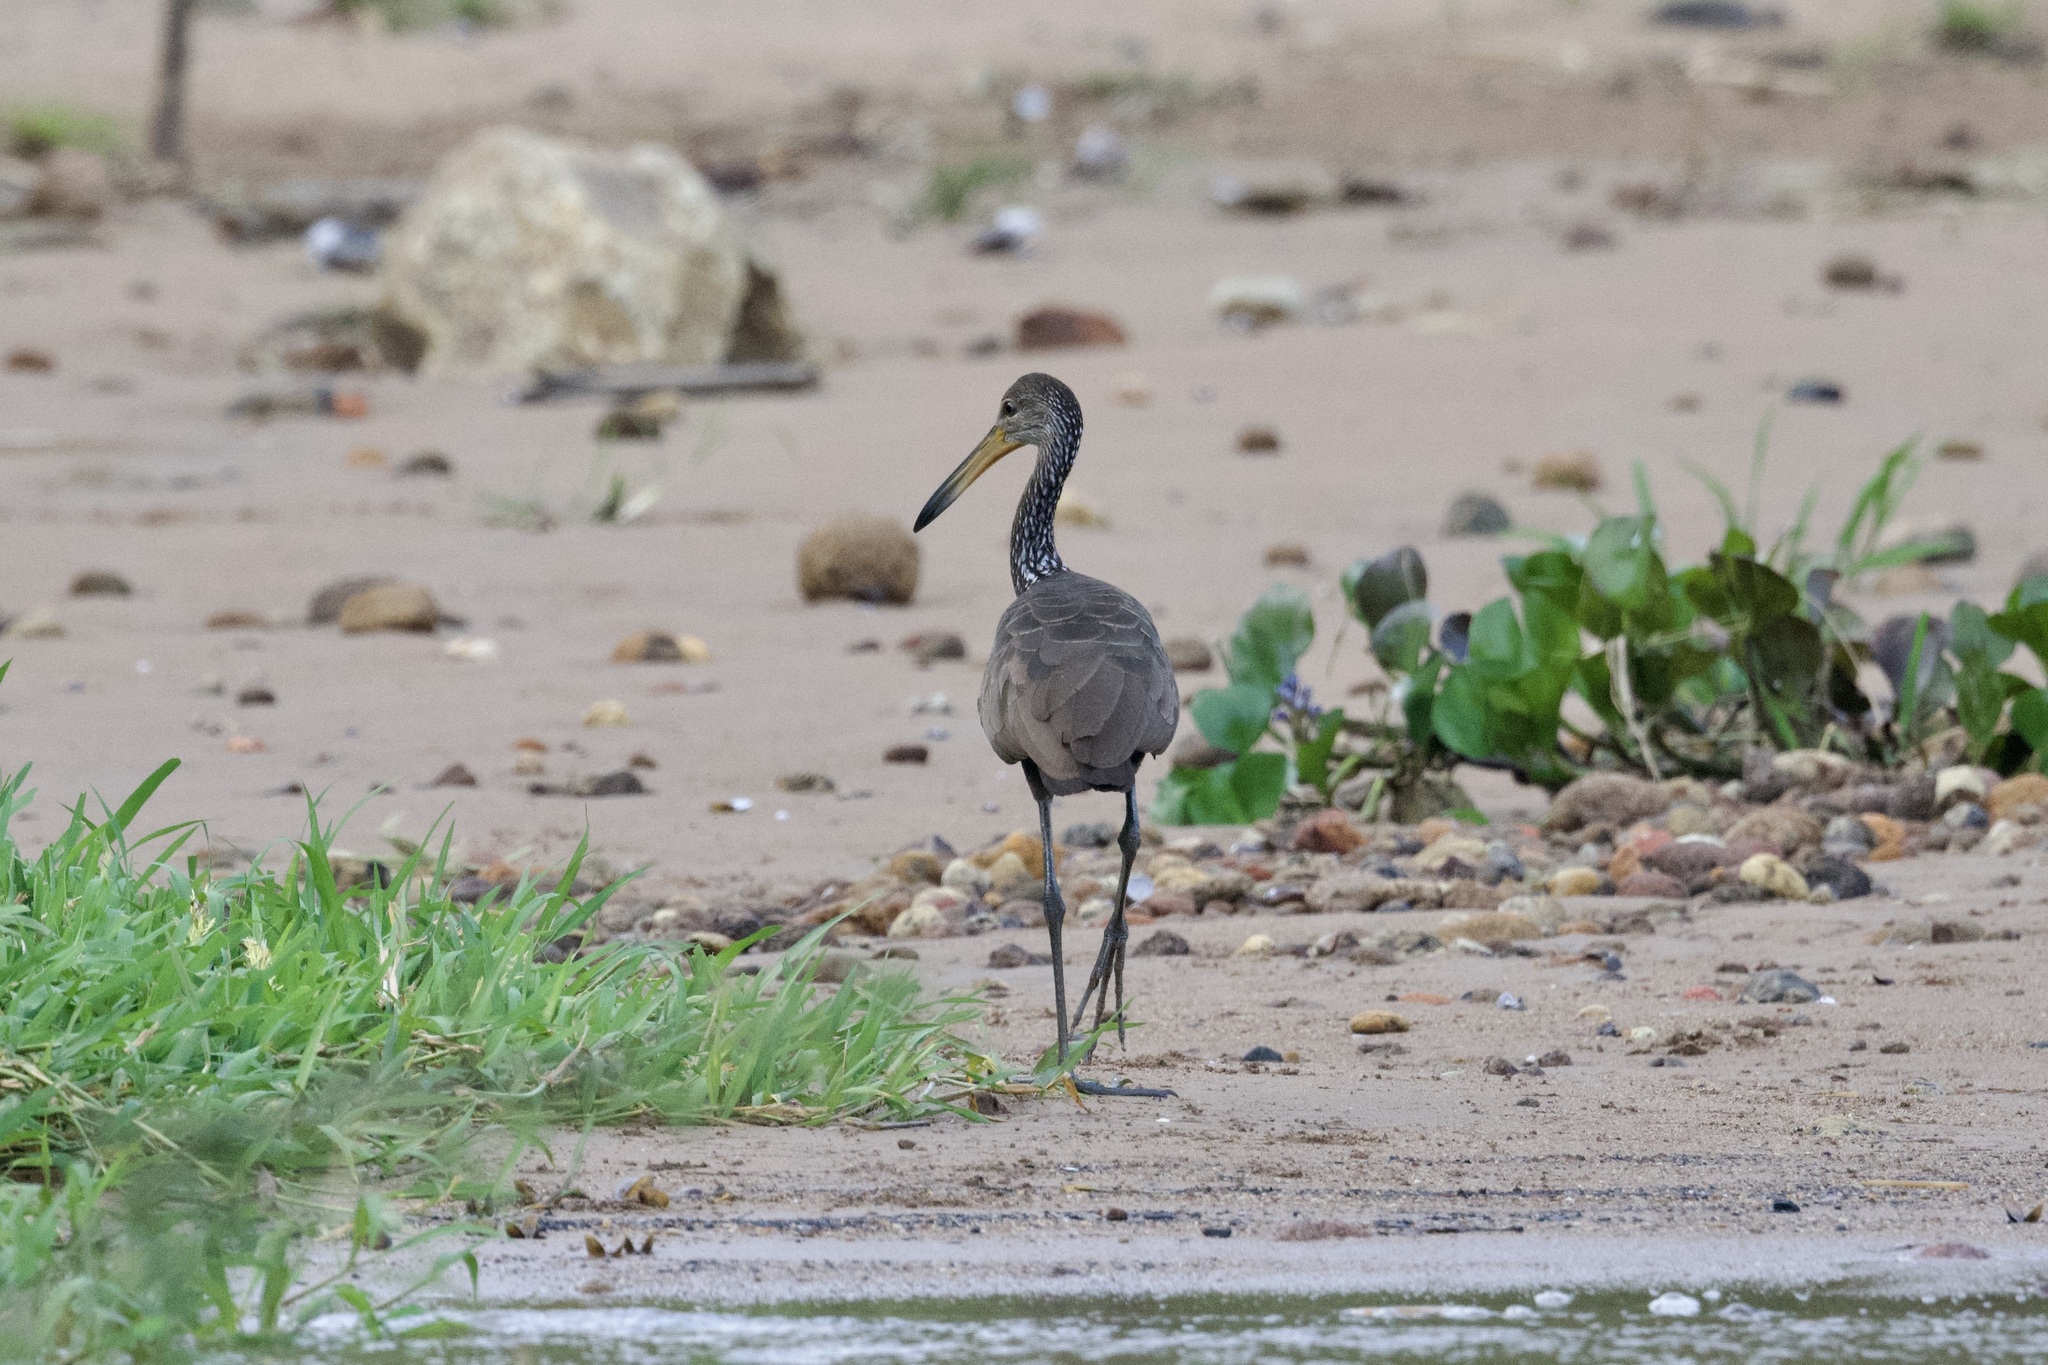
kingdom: Animalia
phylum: Chordata
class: Aves
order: Gruiformes
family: Aramidae
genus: Aramus
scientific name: Aramus guarauna
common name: Limpkin
